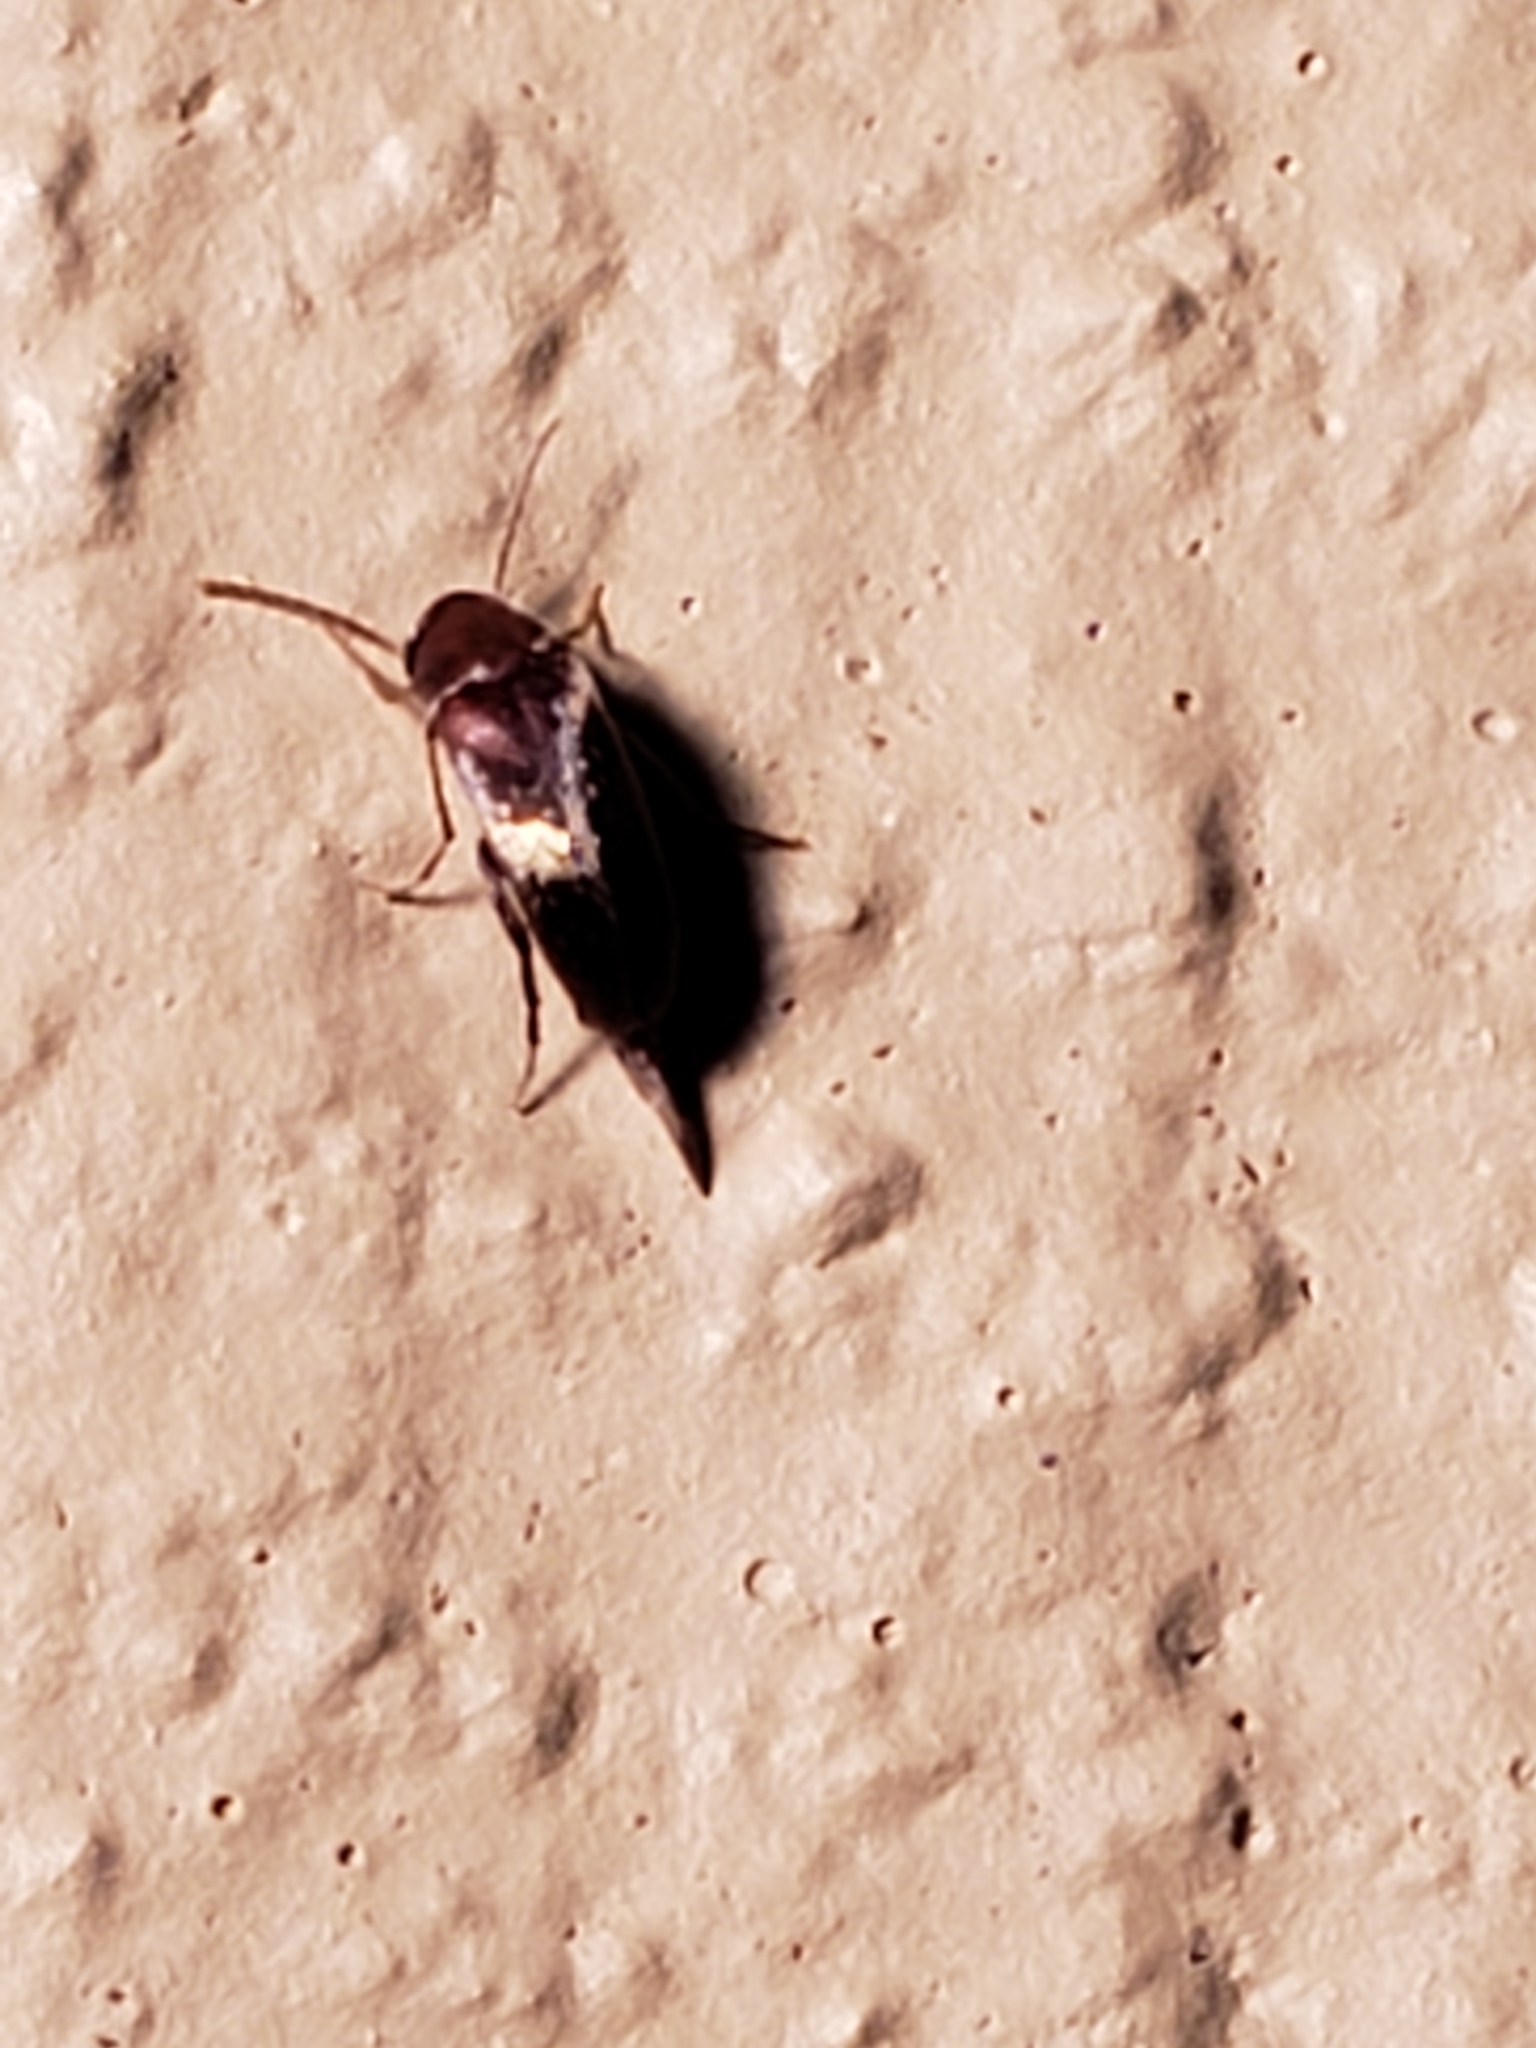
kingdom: Animalia
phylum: Arthropoda
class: Insecta
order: Coleoptera
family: Mordellidae
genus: Mordellistena
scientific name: Mordellistena masoni
